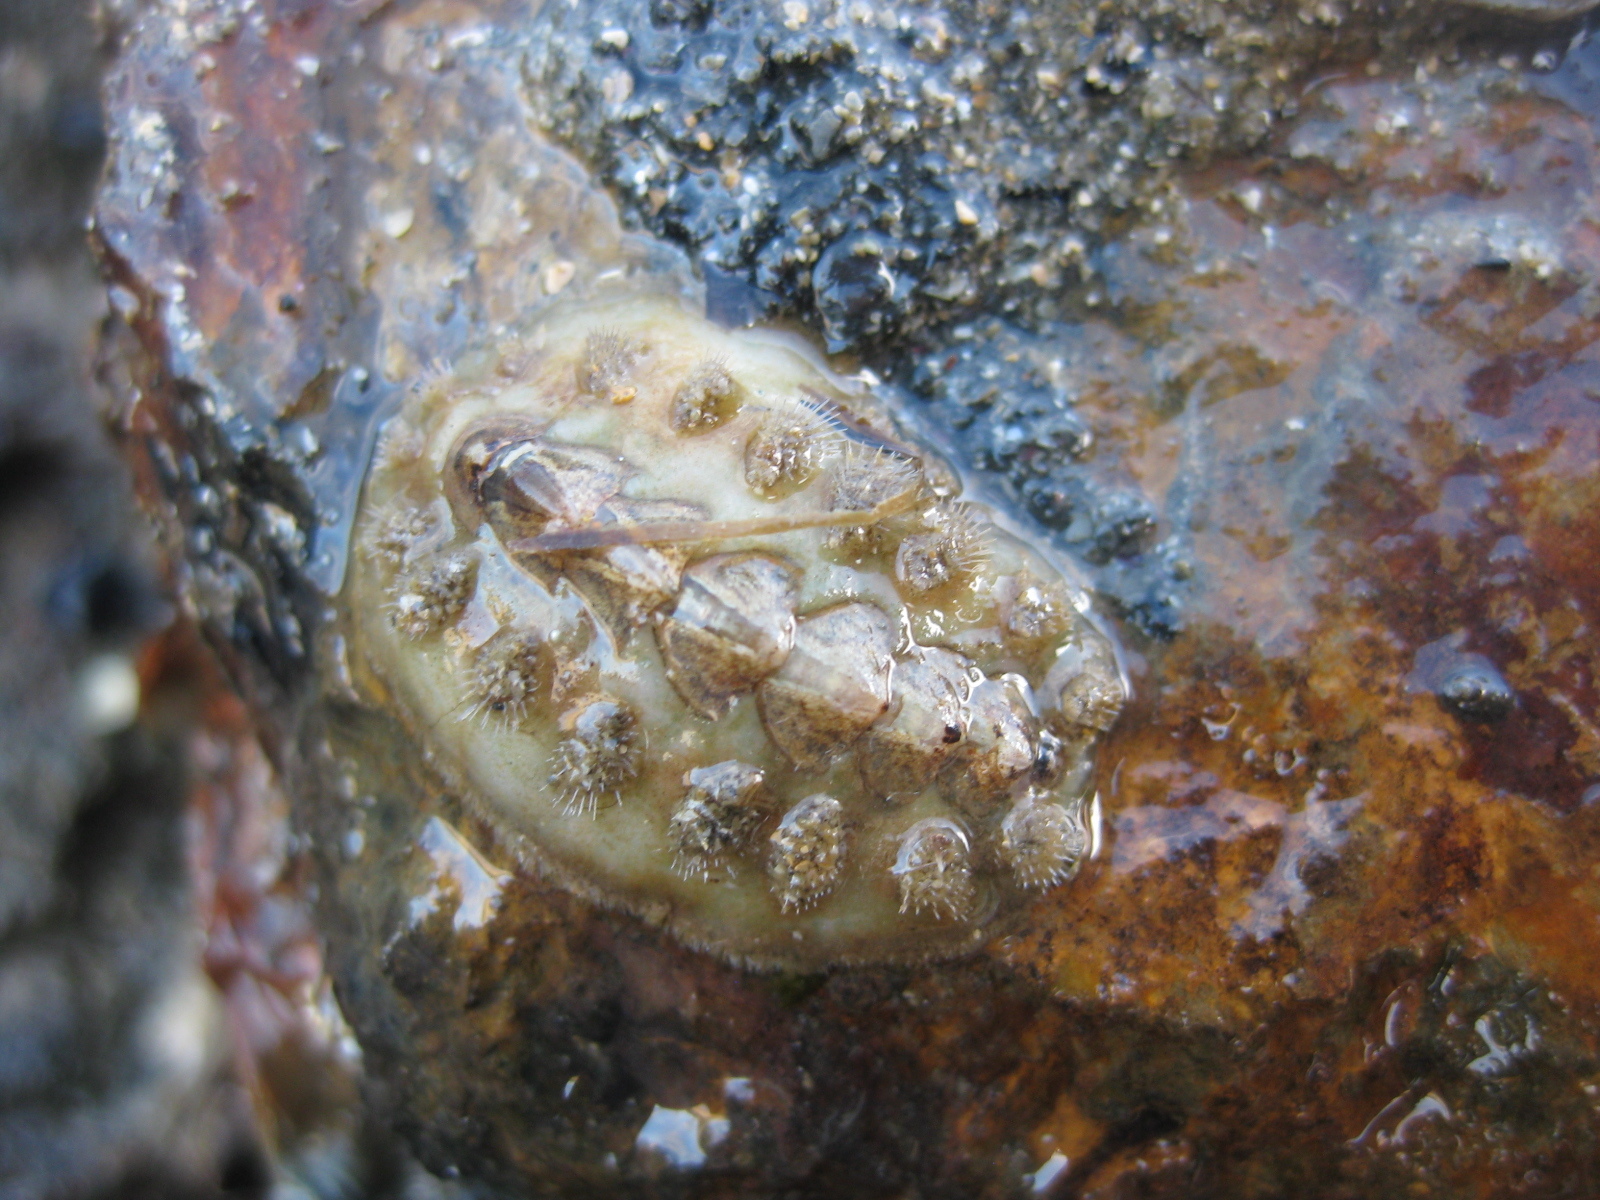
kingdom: Animalia
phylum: Mollusca
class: Polyplacophora
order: Chitonida
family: Acanthochitonidae
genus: Acanthochitona
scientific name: Acanthochitona zelandica
